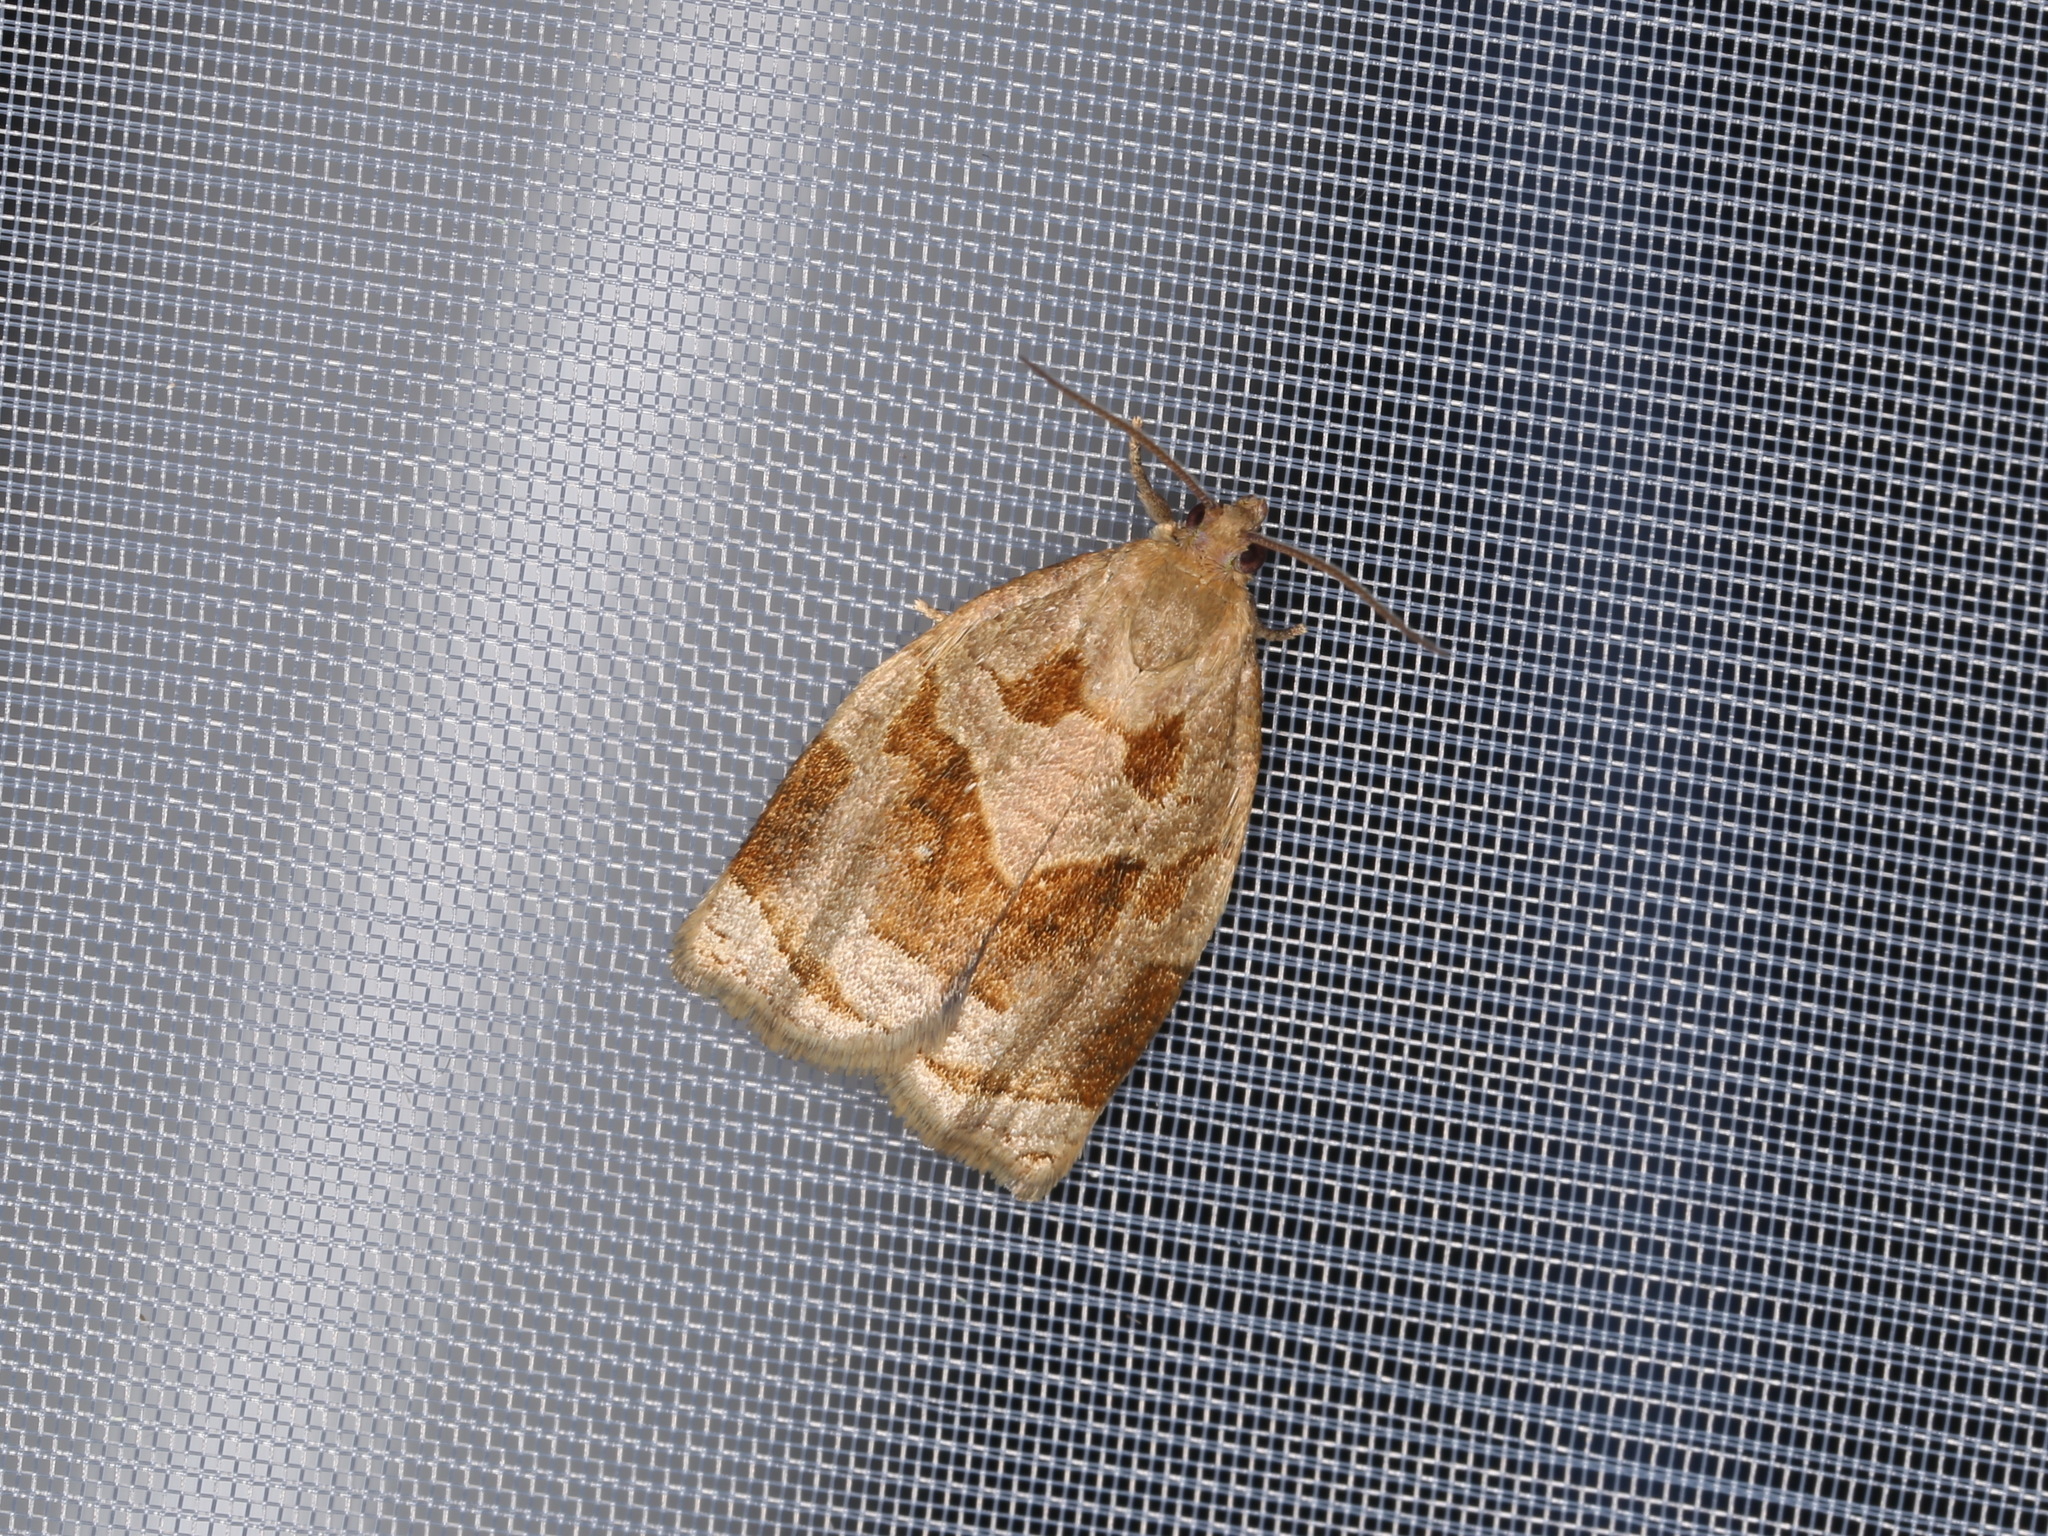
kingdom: Animalia
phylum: Arthropoda
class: Insecta
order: Lepidoptera
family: Tortricidae
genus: Archips
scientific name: Archips rosana
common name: Rose tortrix
